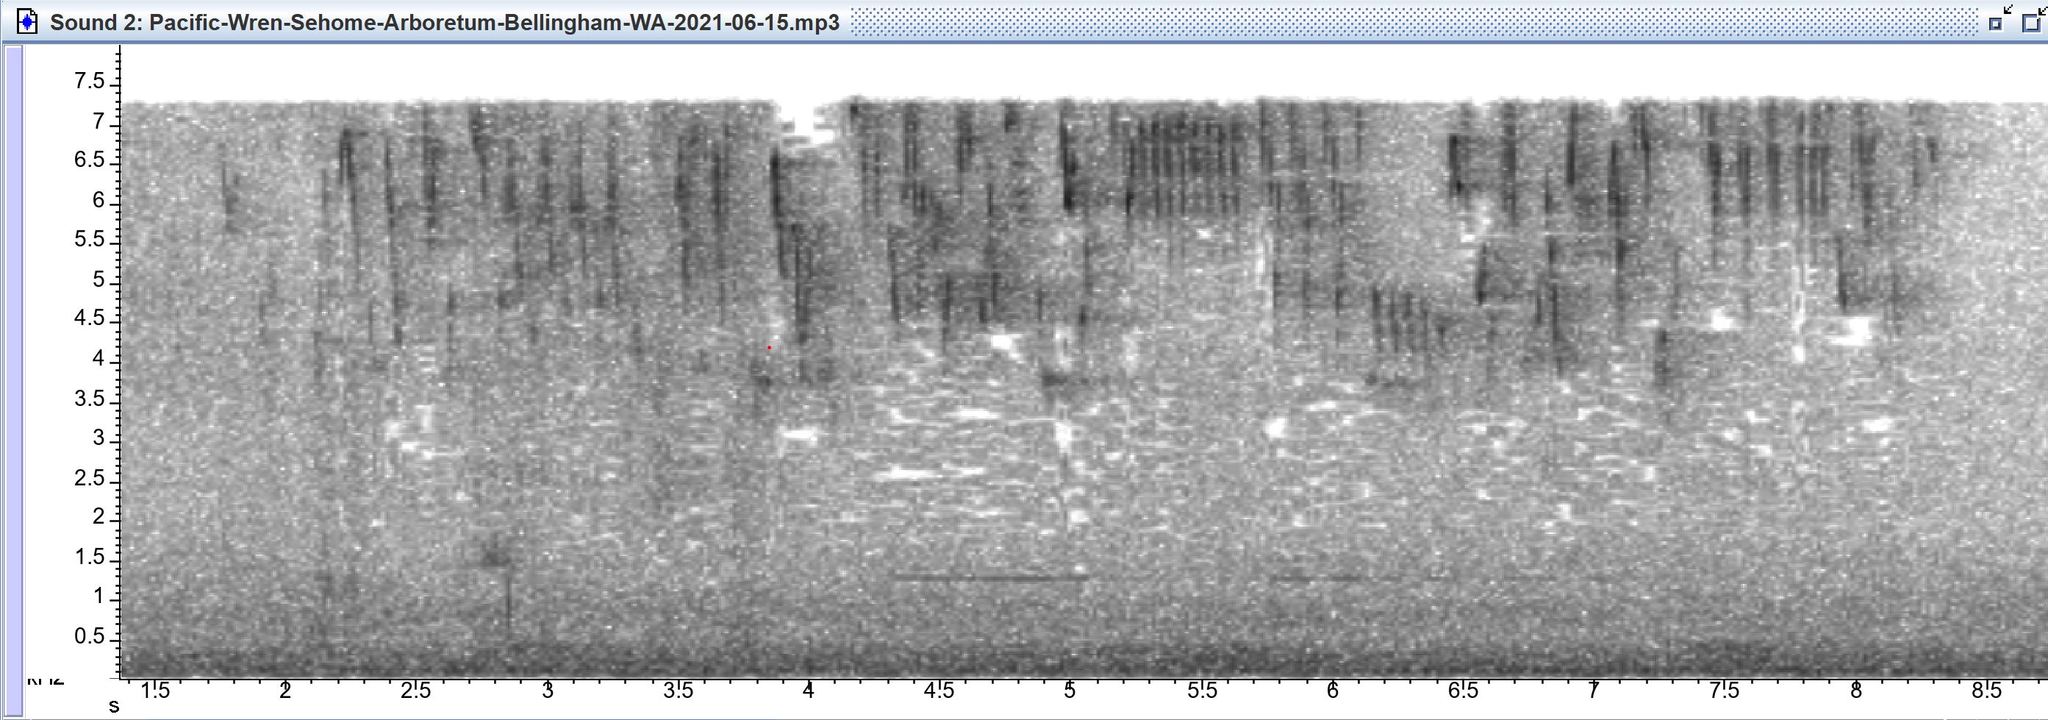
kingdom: Animalia
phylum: Chordata
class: Aves
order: Passeriformes
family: Troglodytidae
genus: Troglodytes
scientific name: Troglodytes pacificus
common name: Pacific wren
